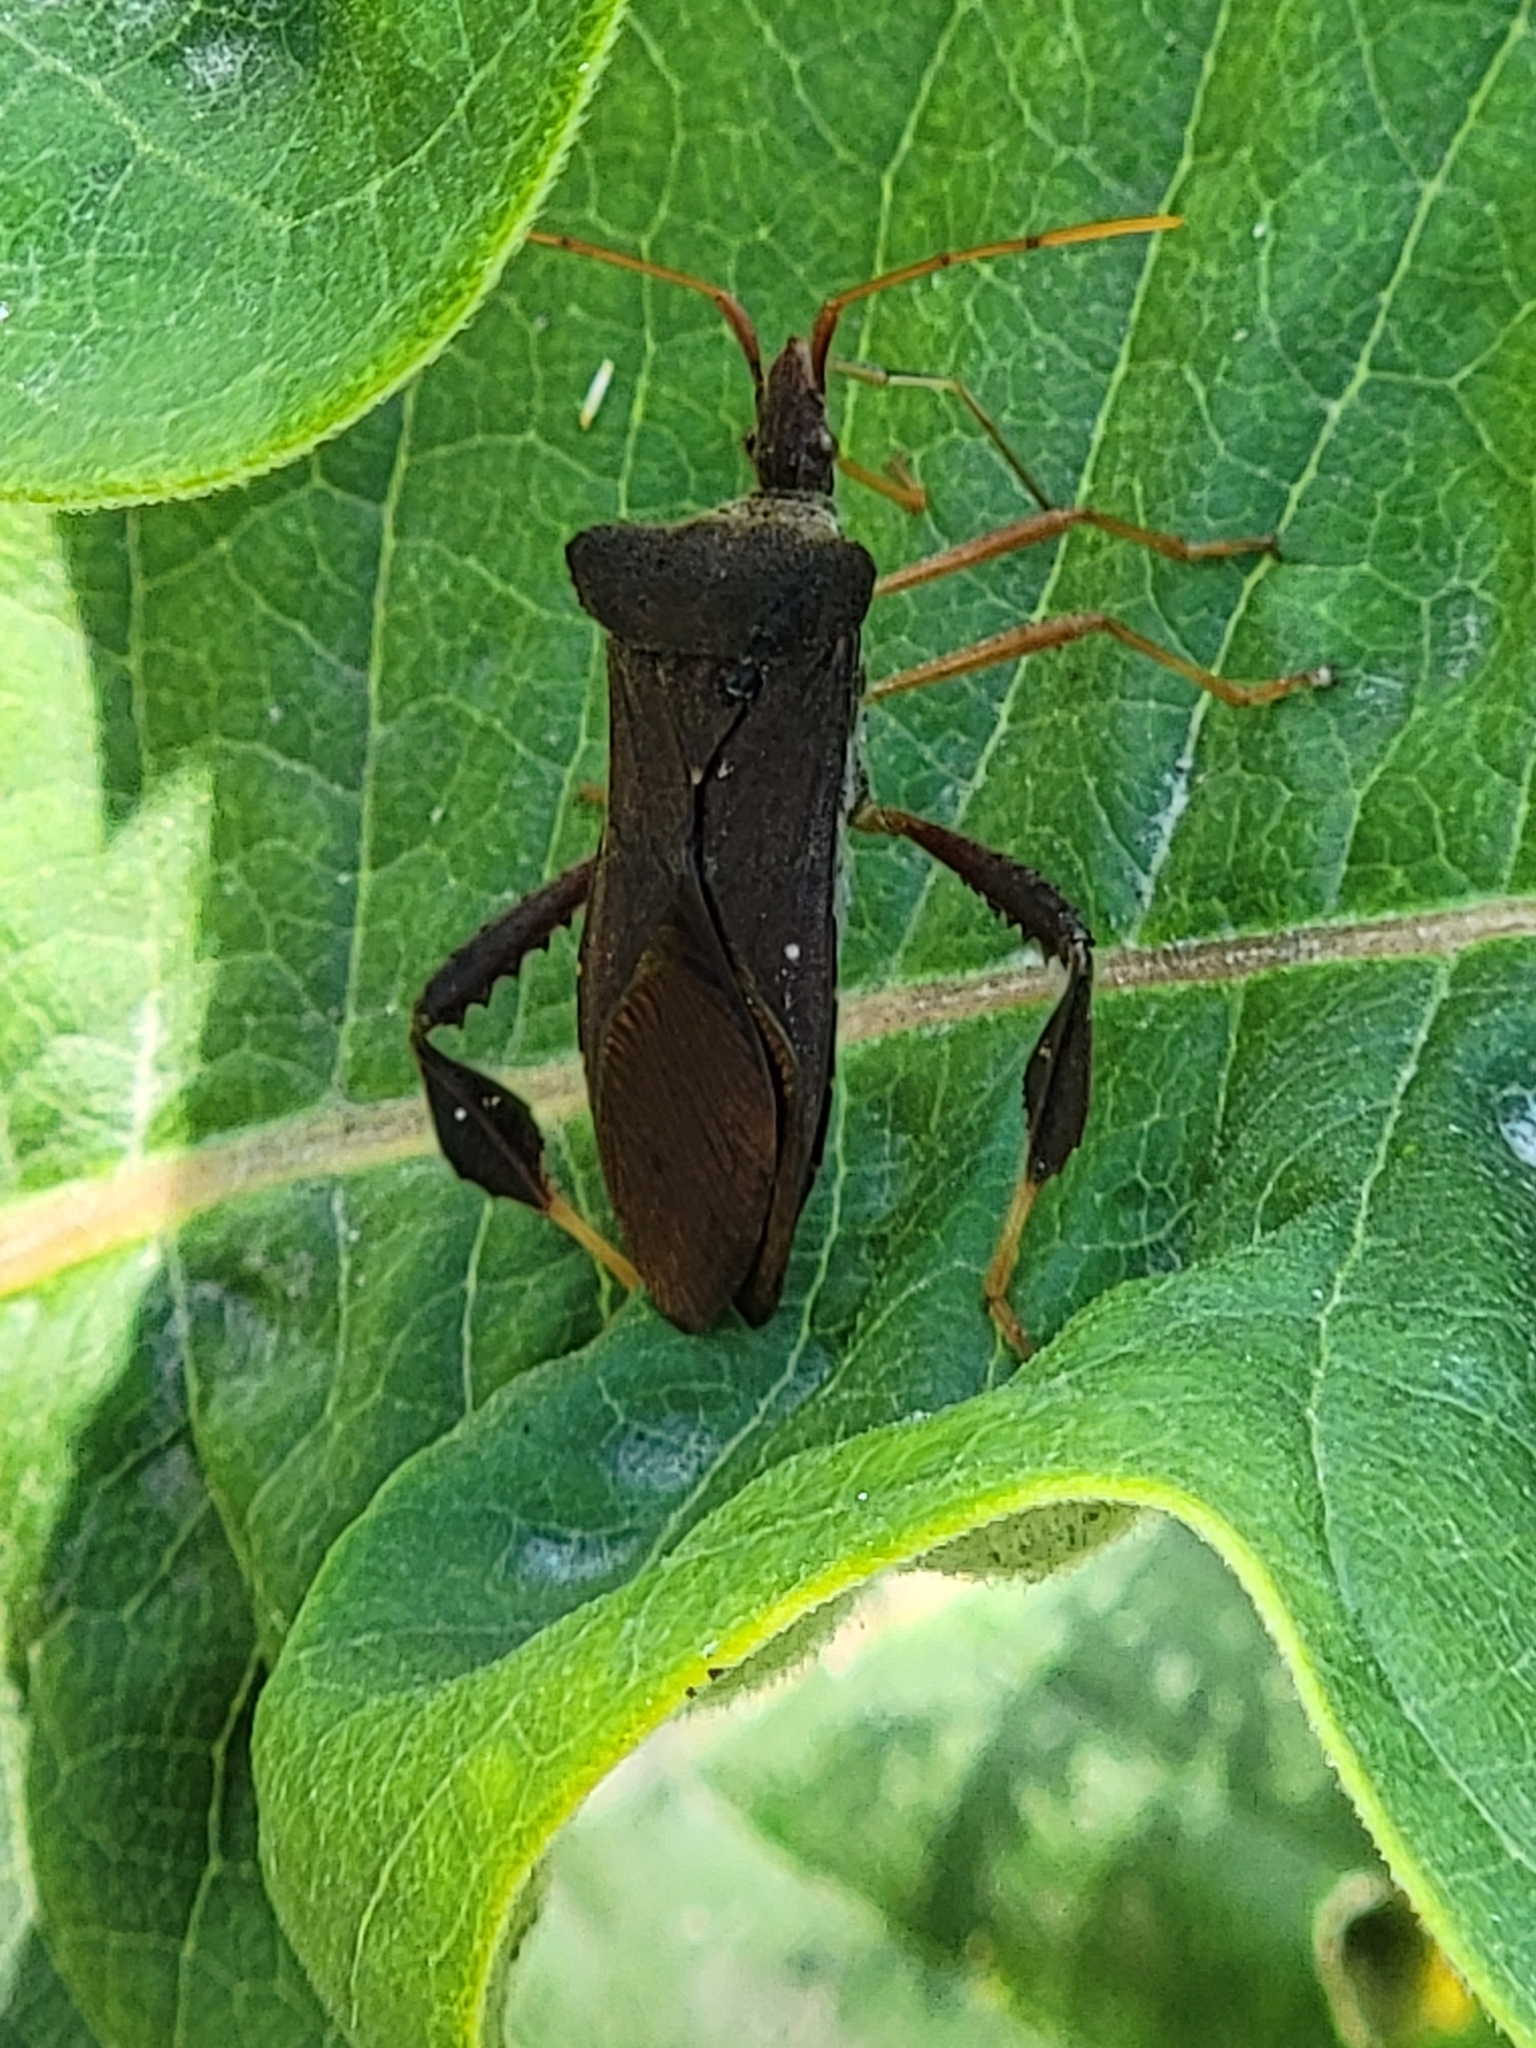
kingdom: Animalia
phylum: Arthropoda
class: Insecta
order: Hemiptera
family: Coreidae
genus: Leptoglossus
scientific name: Leptoglossus fulvicornis
